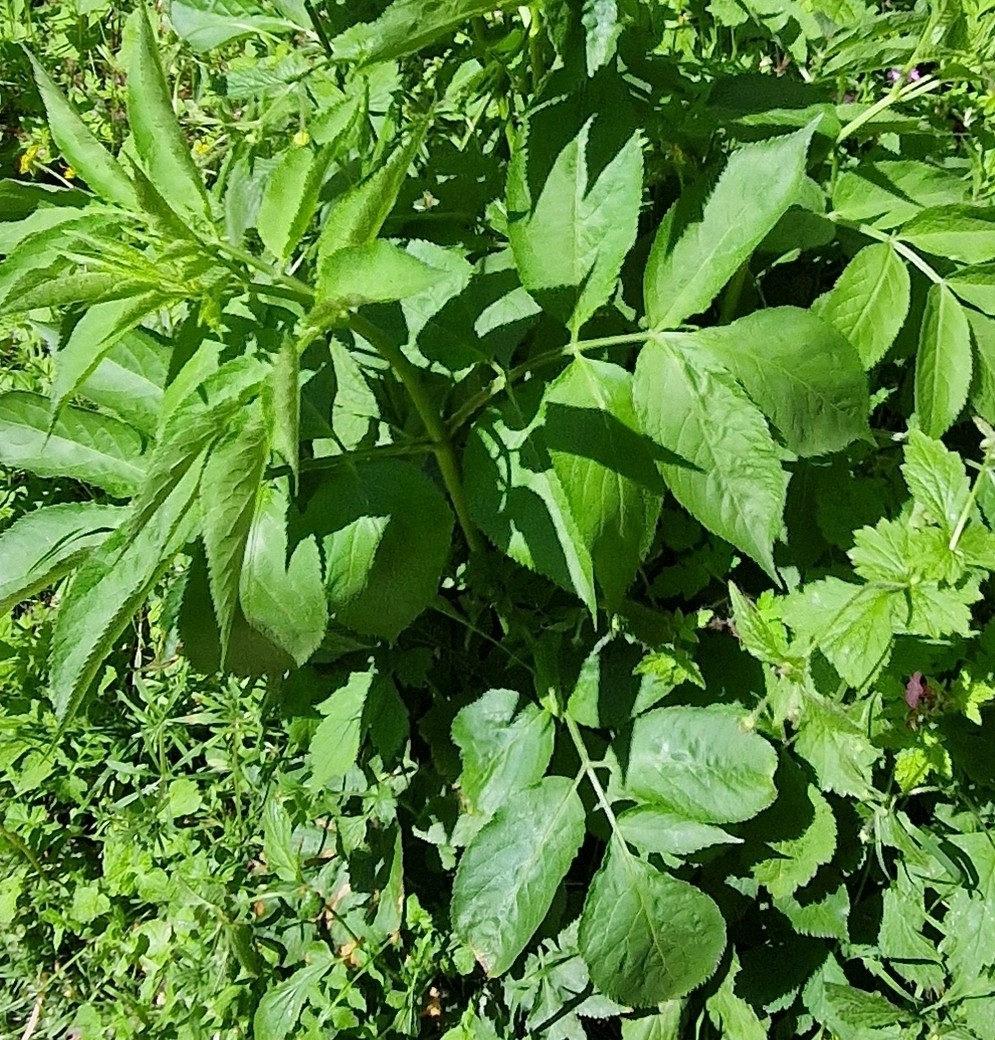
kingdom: Plantae
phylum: Tracheophyta
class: Magnoliopsida
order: Dipsacales
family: Viburnaceae
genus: Sambucus
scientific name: Sambucus nigra
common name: Elder
